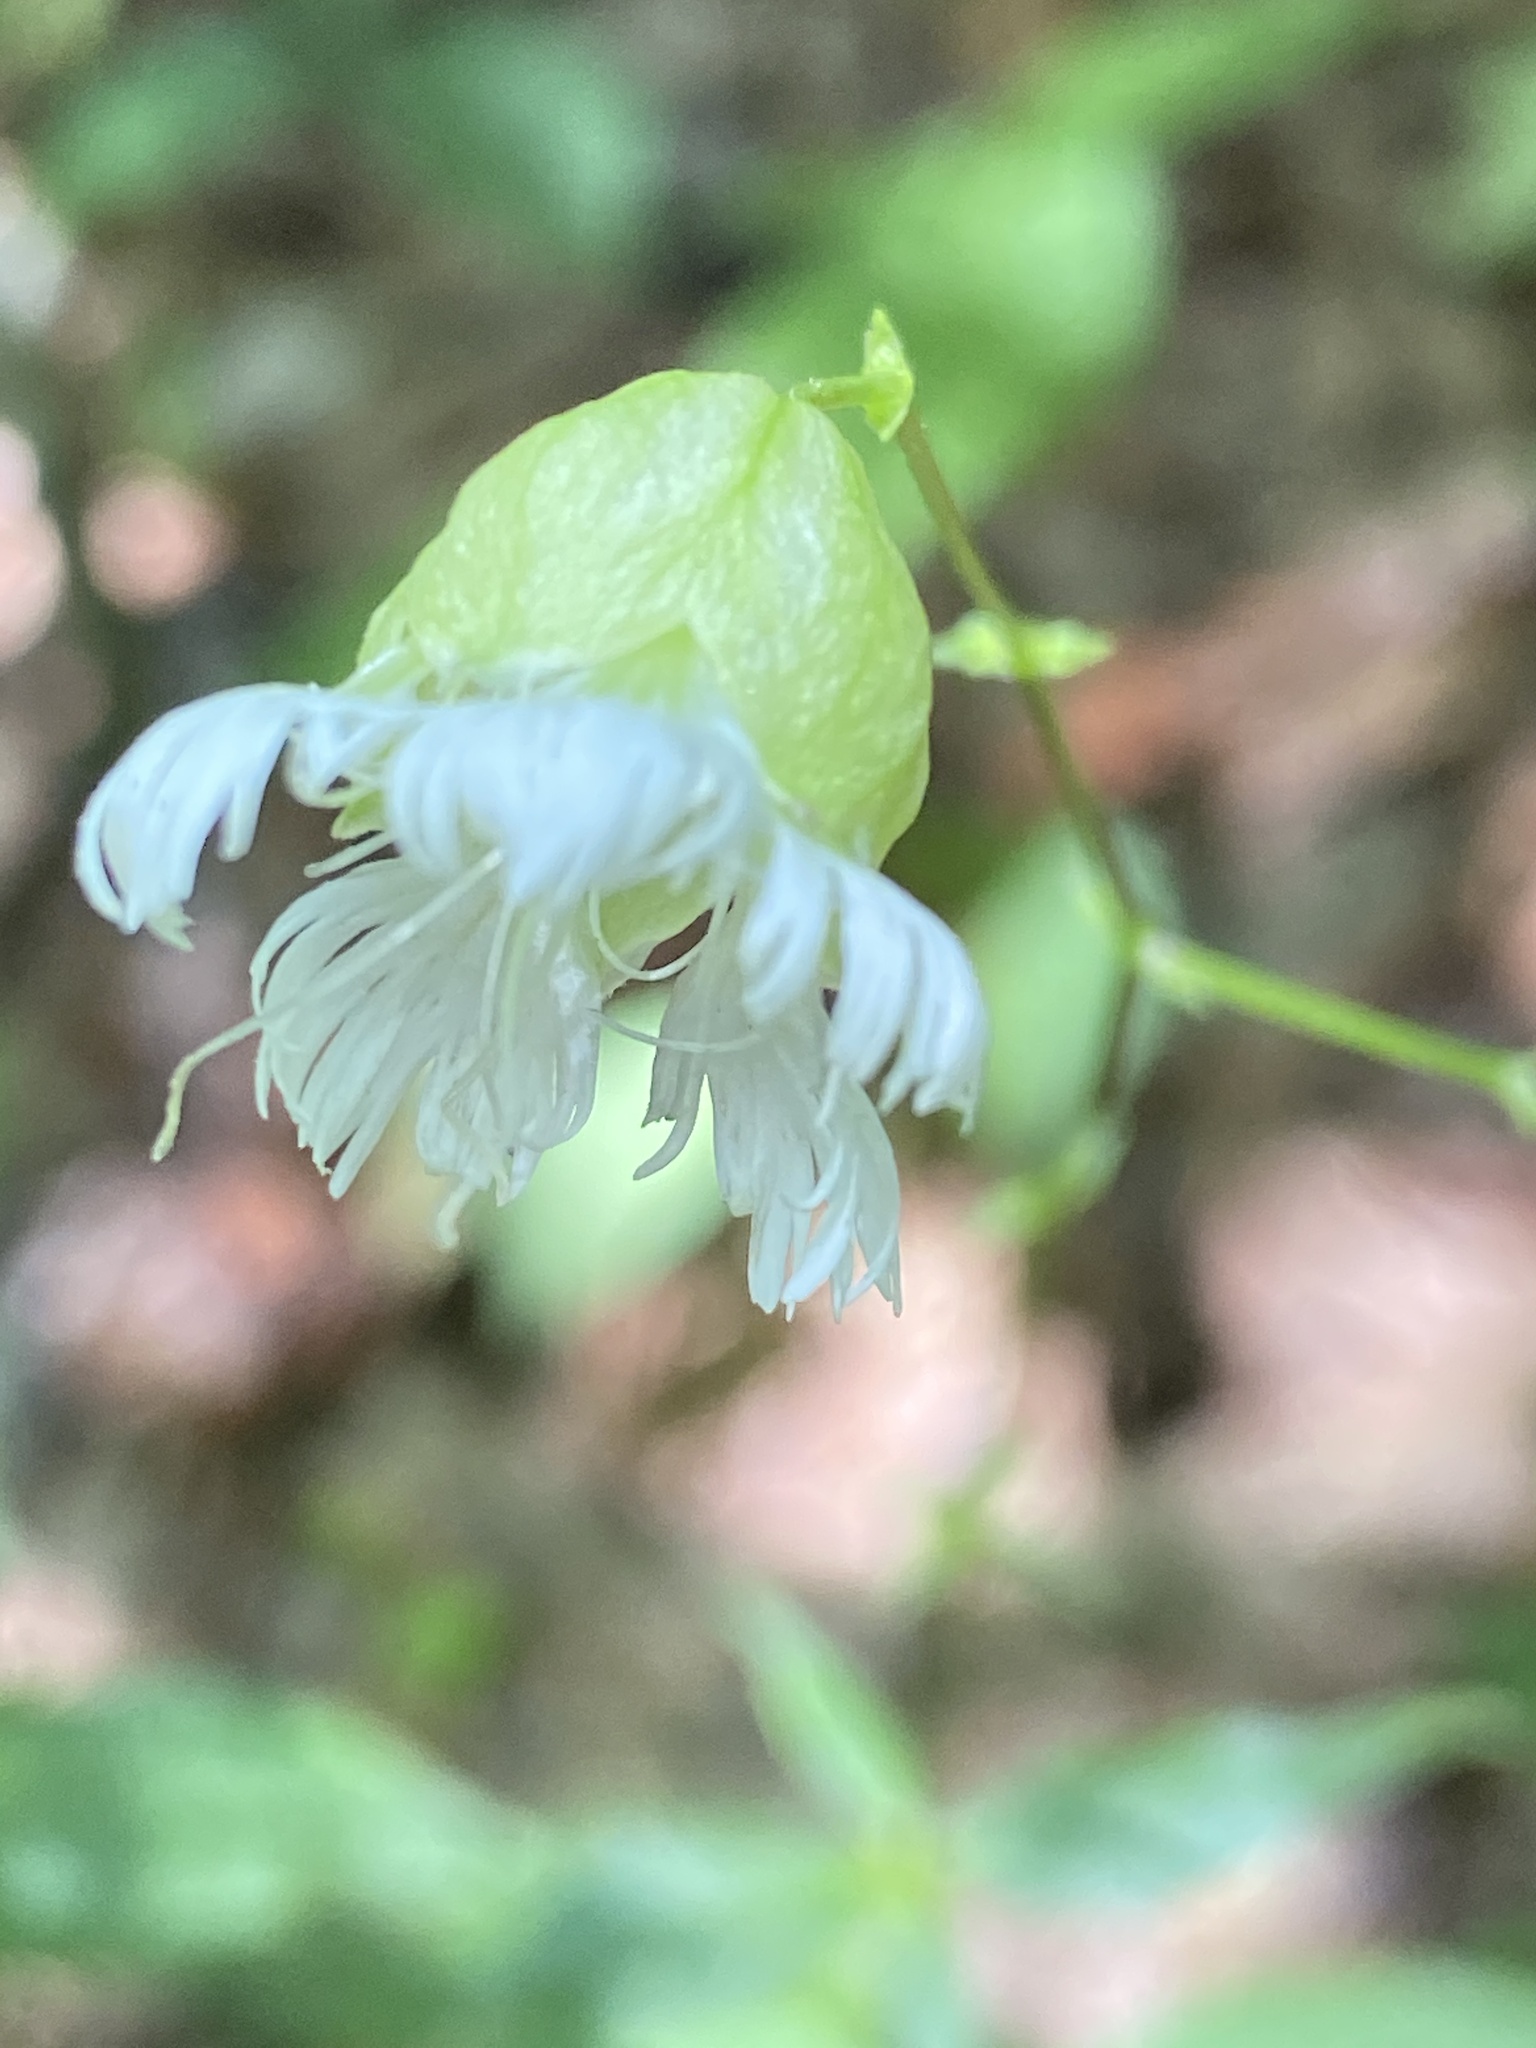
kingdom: Plantae
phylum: Tracheophyta
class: Magnoliopsida
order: Caryophyllales
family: Caryophyllaceae
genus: Silene
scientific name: Silene stellata
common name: Starry campion
